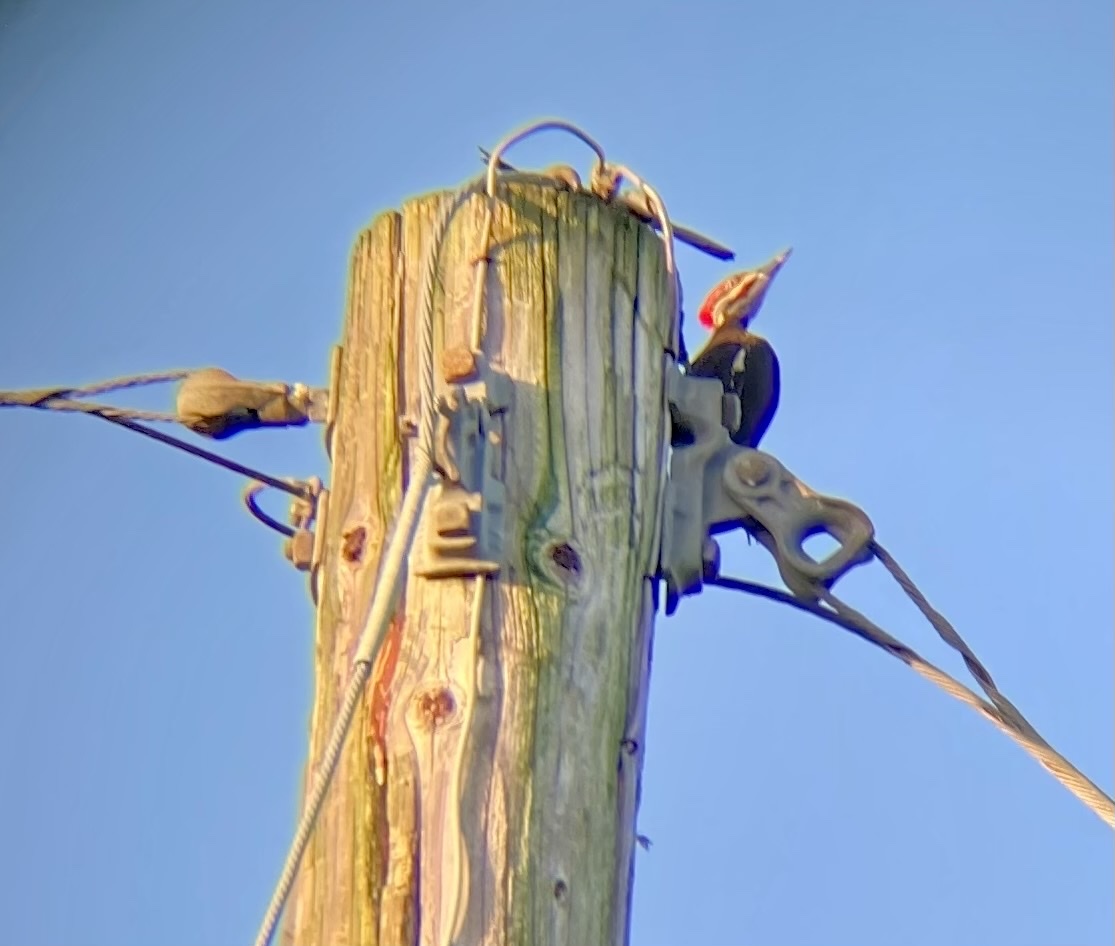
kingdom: Animalia
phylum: Chordata
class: Aves
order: Piciformes
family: Picidae
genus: Dryocopus
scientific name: Dryocopus pileatus
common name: Pileated woodpecker
